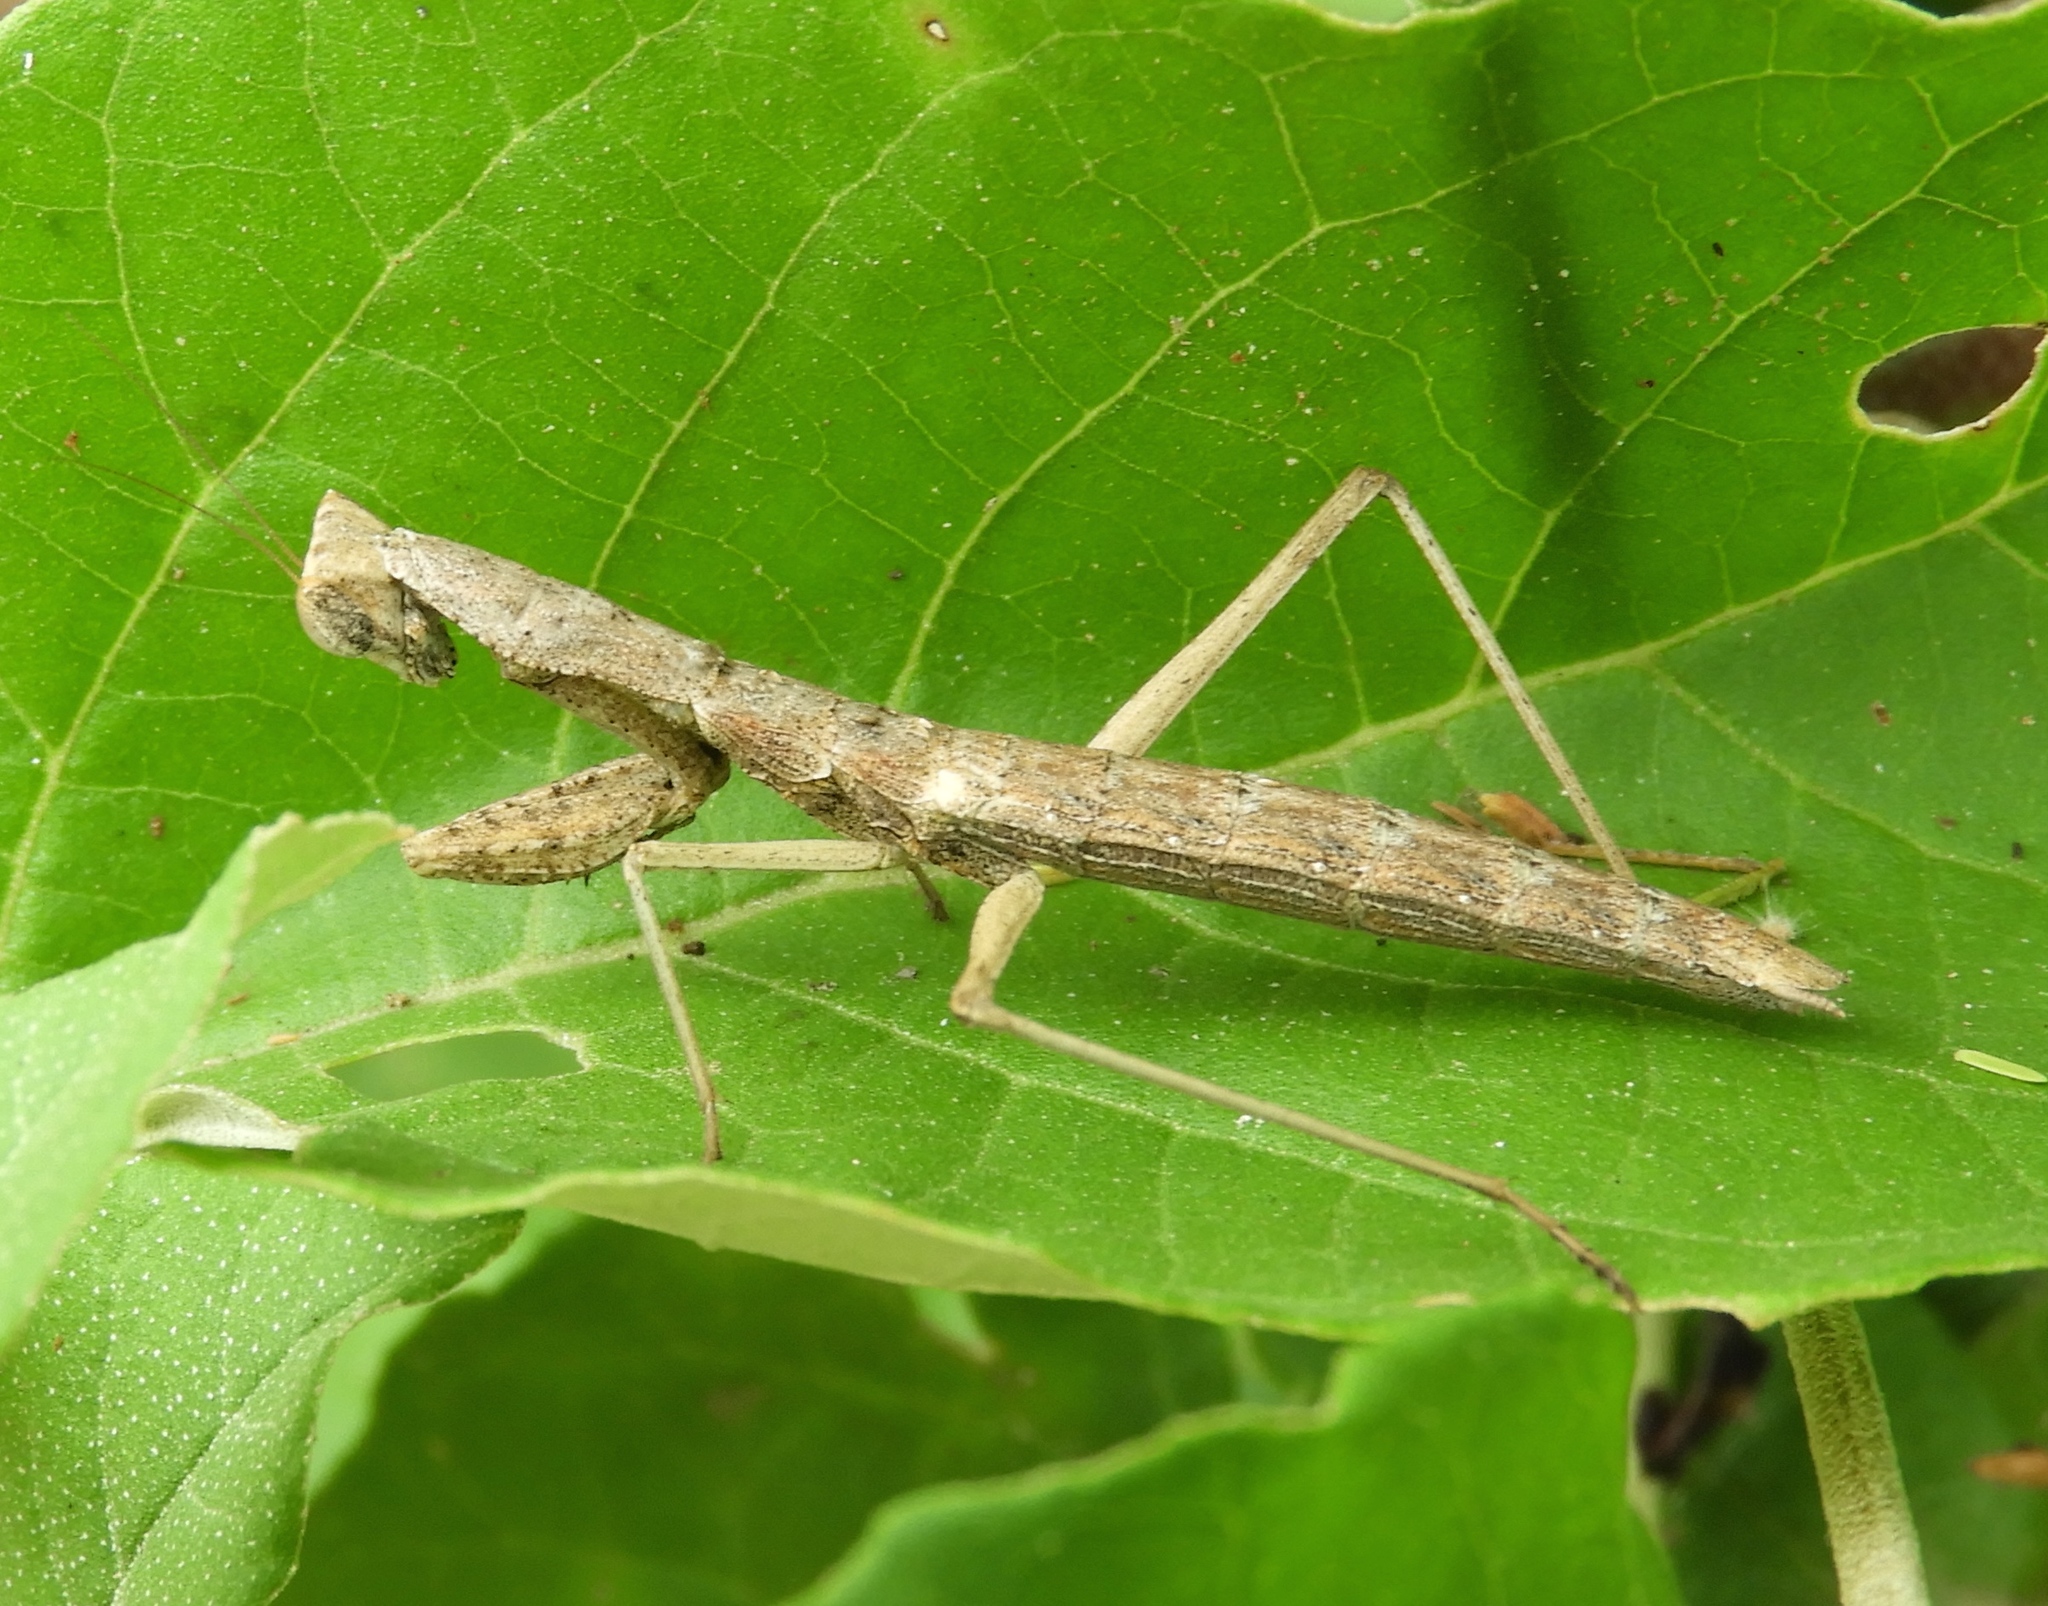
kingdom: Animalia
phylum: Arthropoda
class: Insecta
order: Mantodea
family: Amelidae
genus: Yersinia
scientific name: Yersinia mexicana
